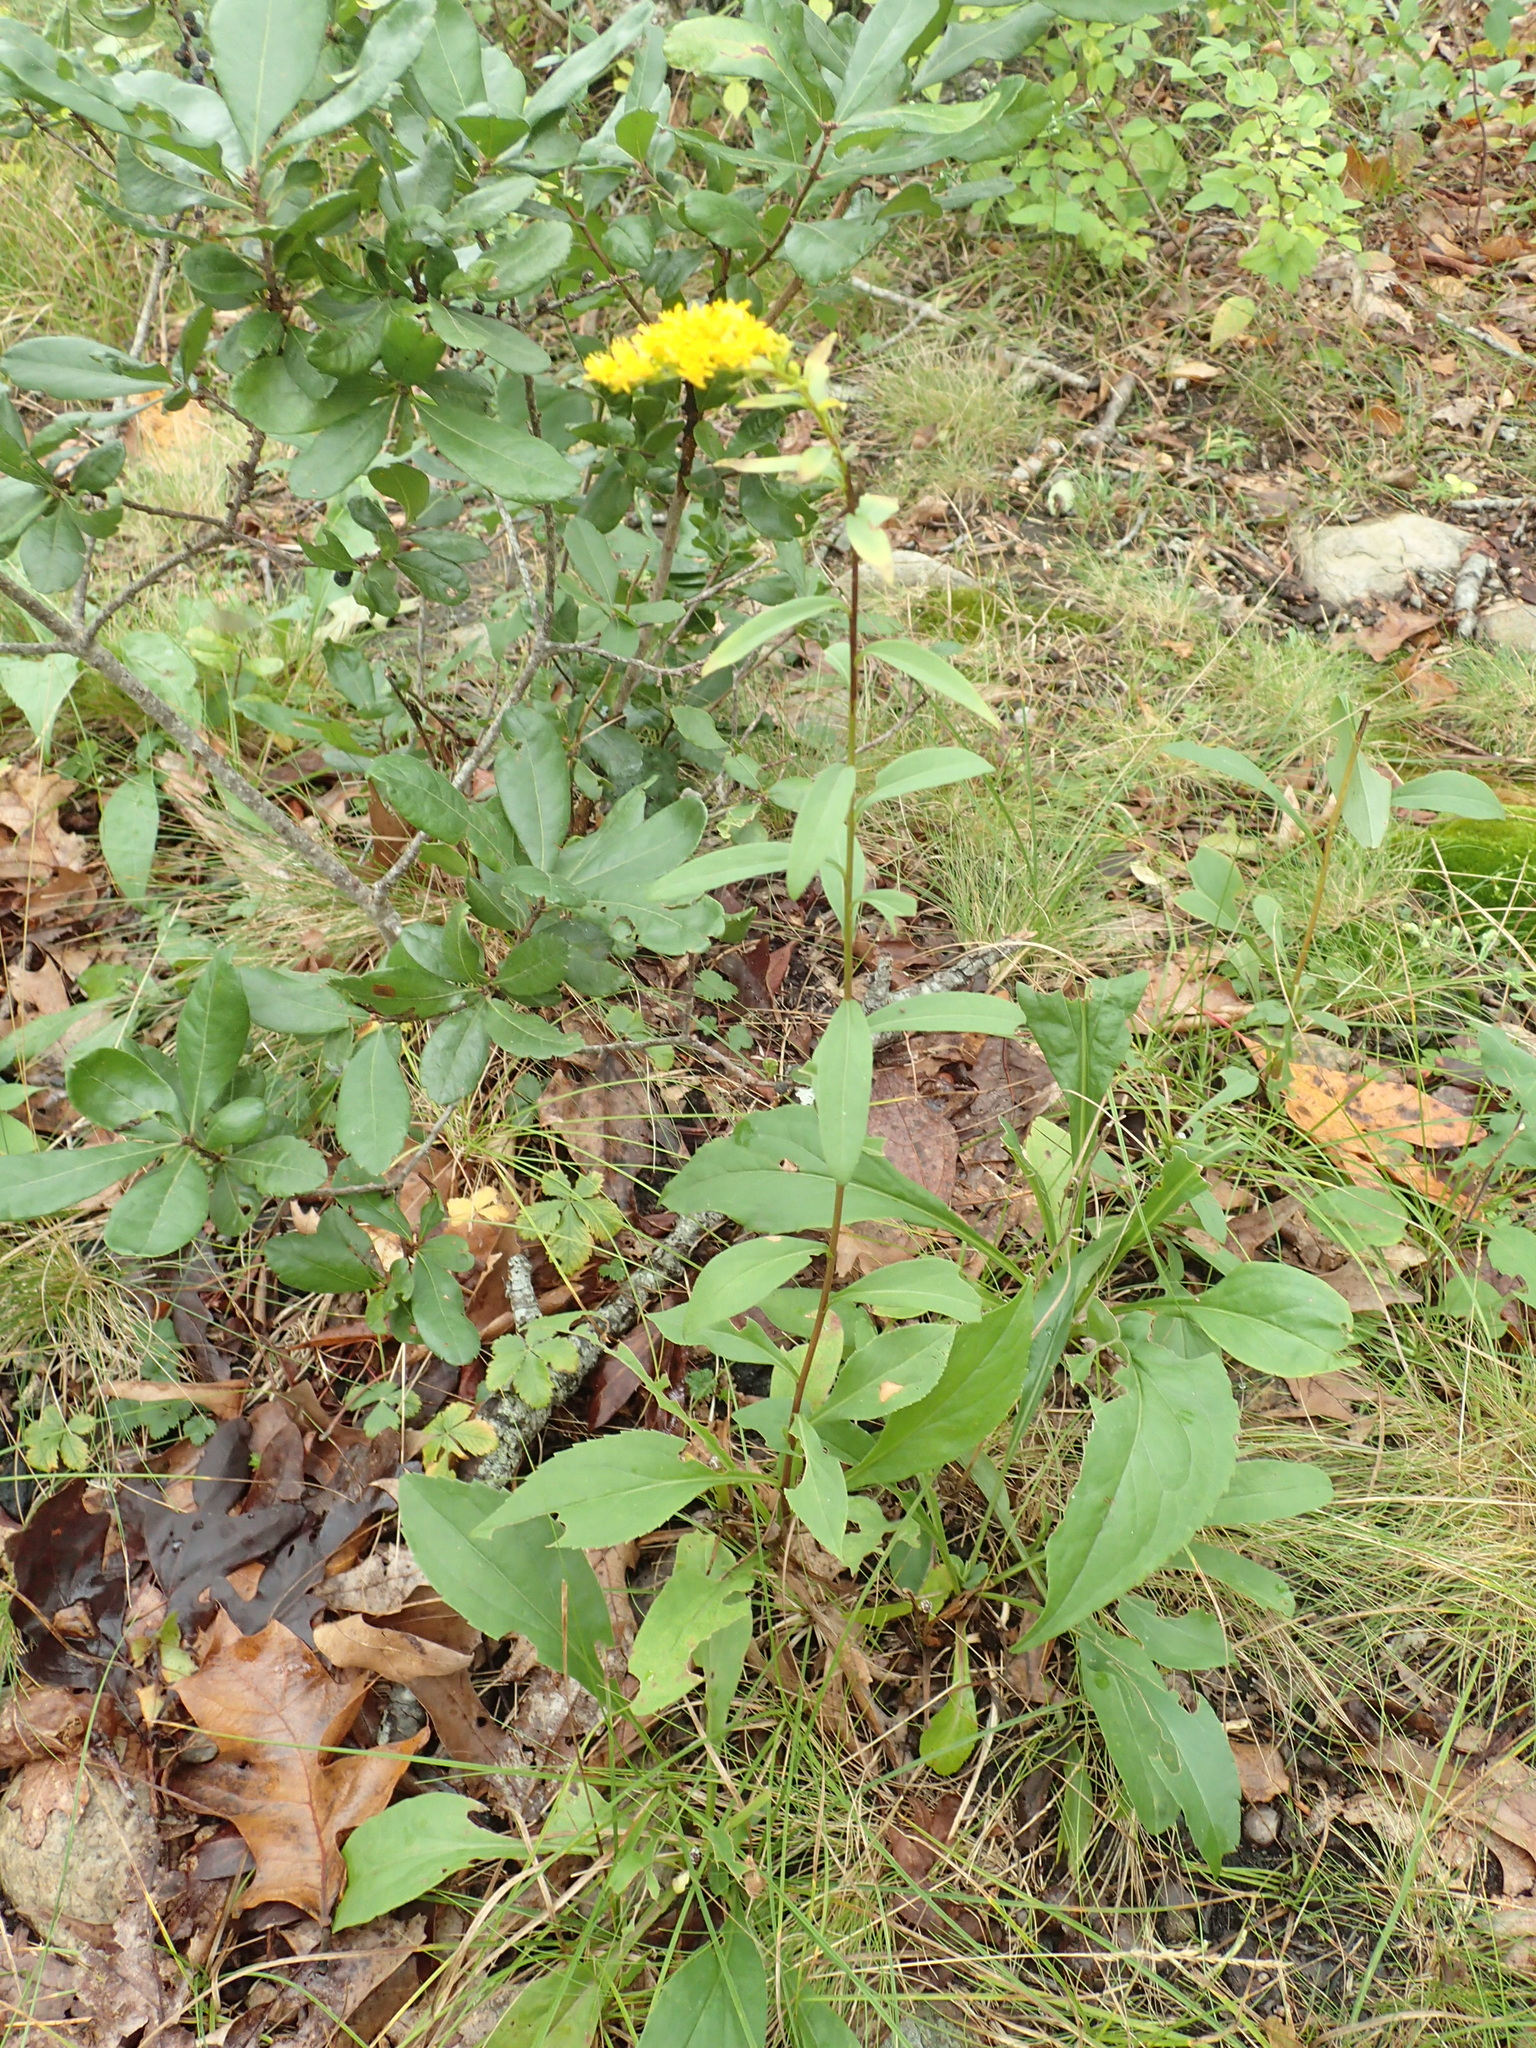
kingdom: Plantae
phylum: Tracheophyta
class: Magnoliopsida
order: Asterales
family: Asteraceae
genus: Solidago
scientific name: Solidago juncea
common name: Early goldenrod
